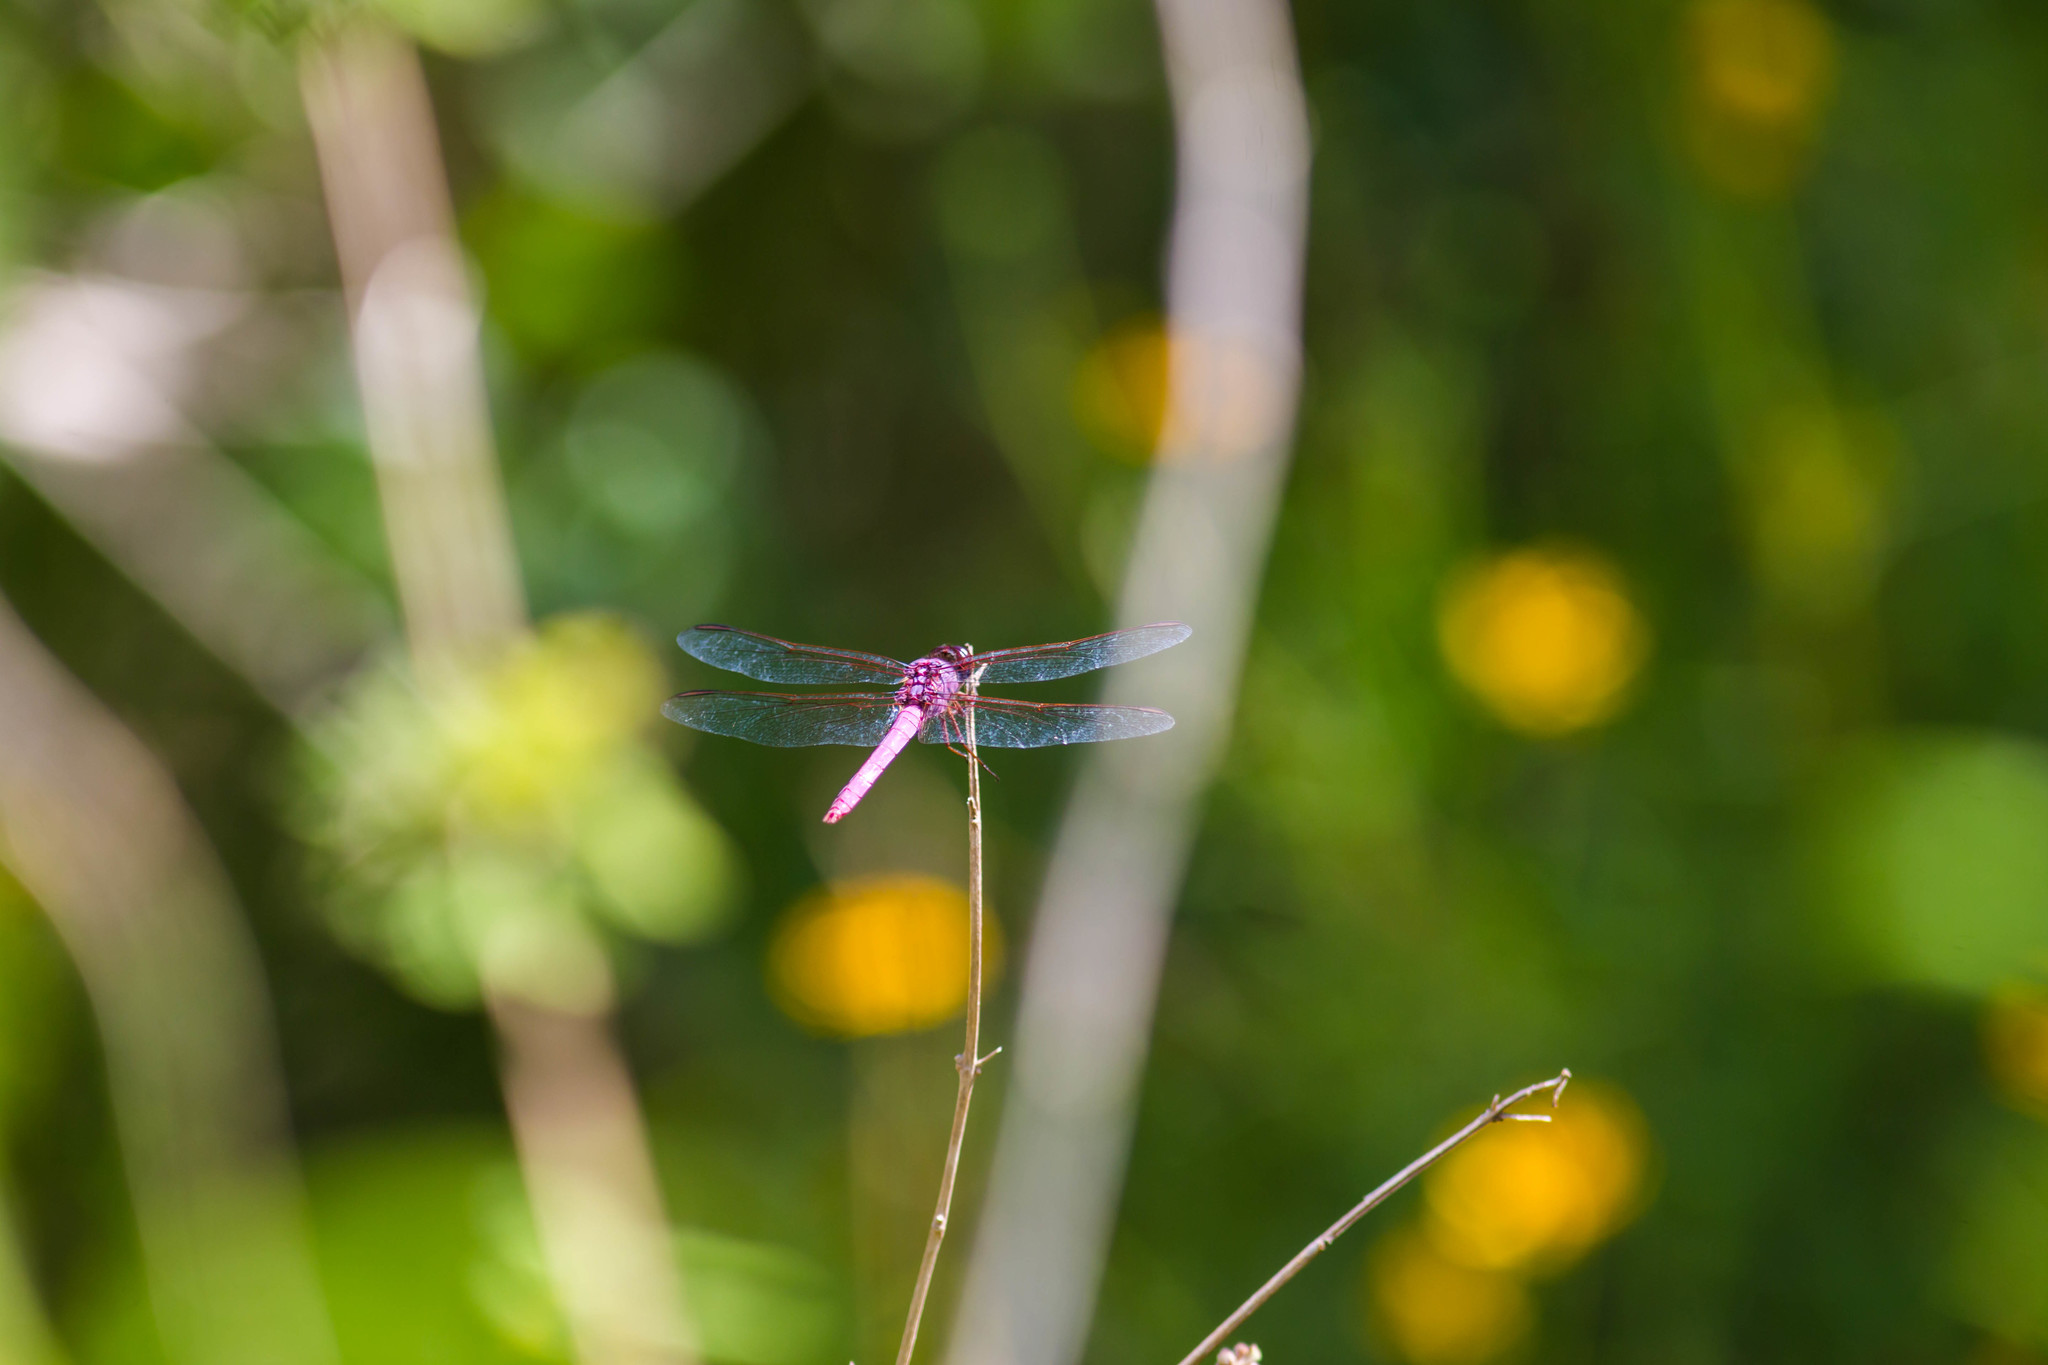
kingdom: Animalia
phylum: Arthropoda
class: Insecta
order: Odonata
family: Libellulidae
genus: Orthemis
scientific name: Orthemis ferruginea
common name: Roseate skimmer
